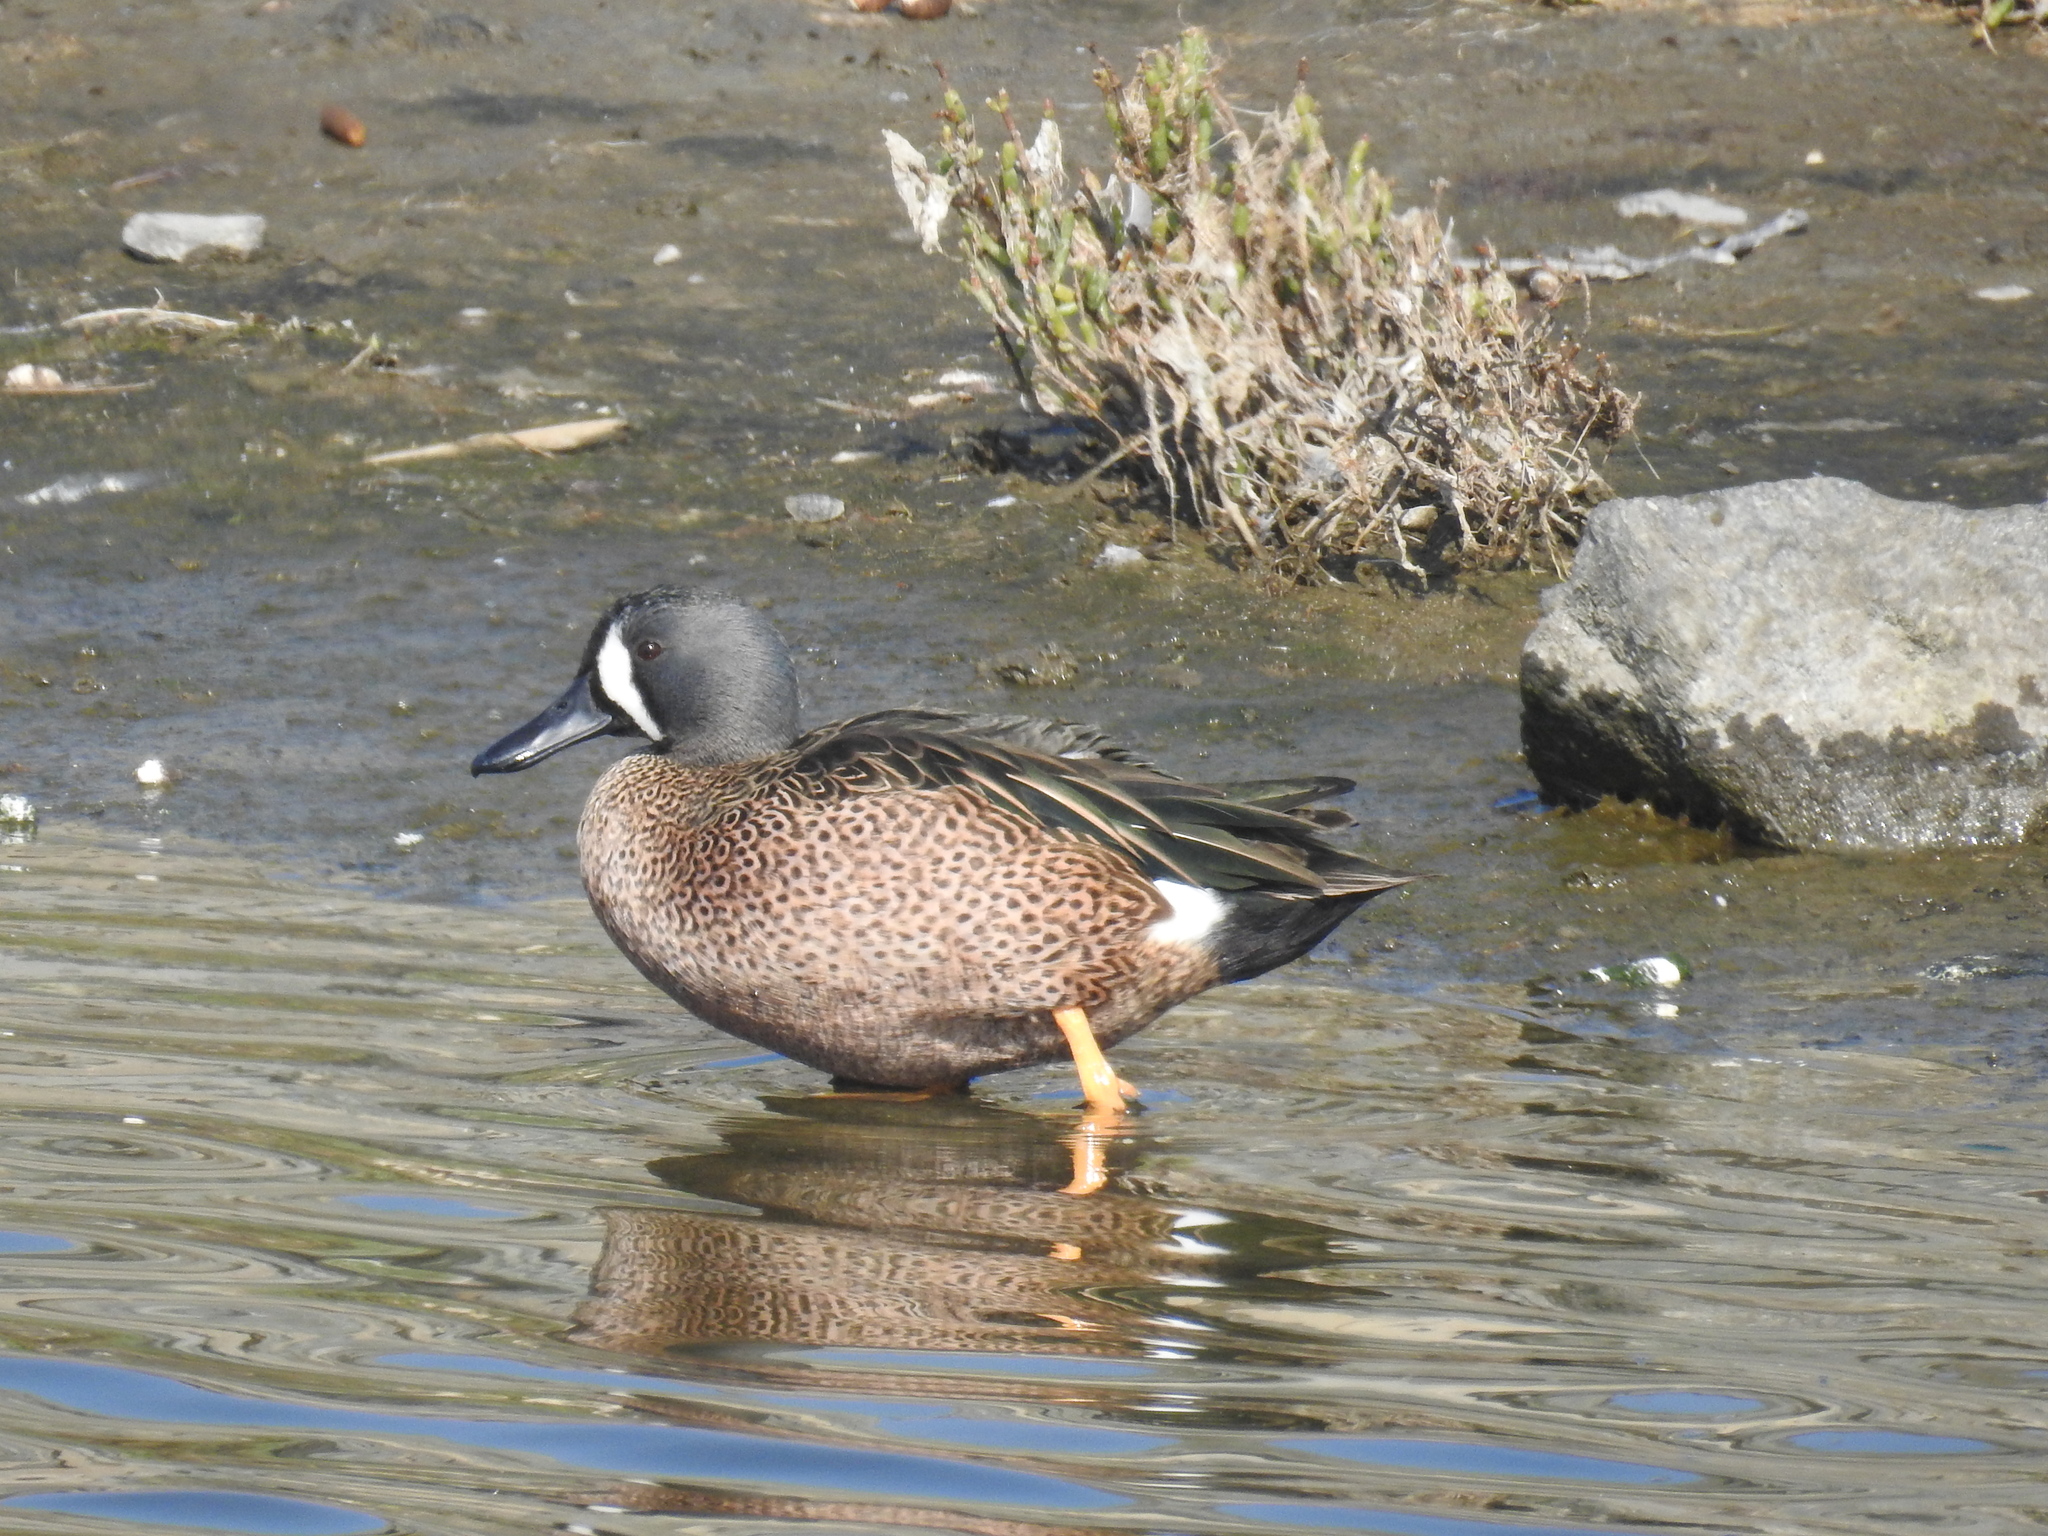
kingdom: Animalia
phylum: Chordata
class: Aves
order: Anseriformes
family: Anatidae
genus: Spatula
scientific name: Spatula discors
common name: Blue-winged teal
